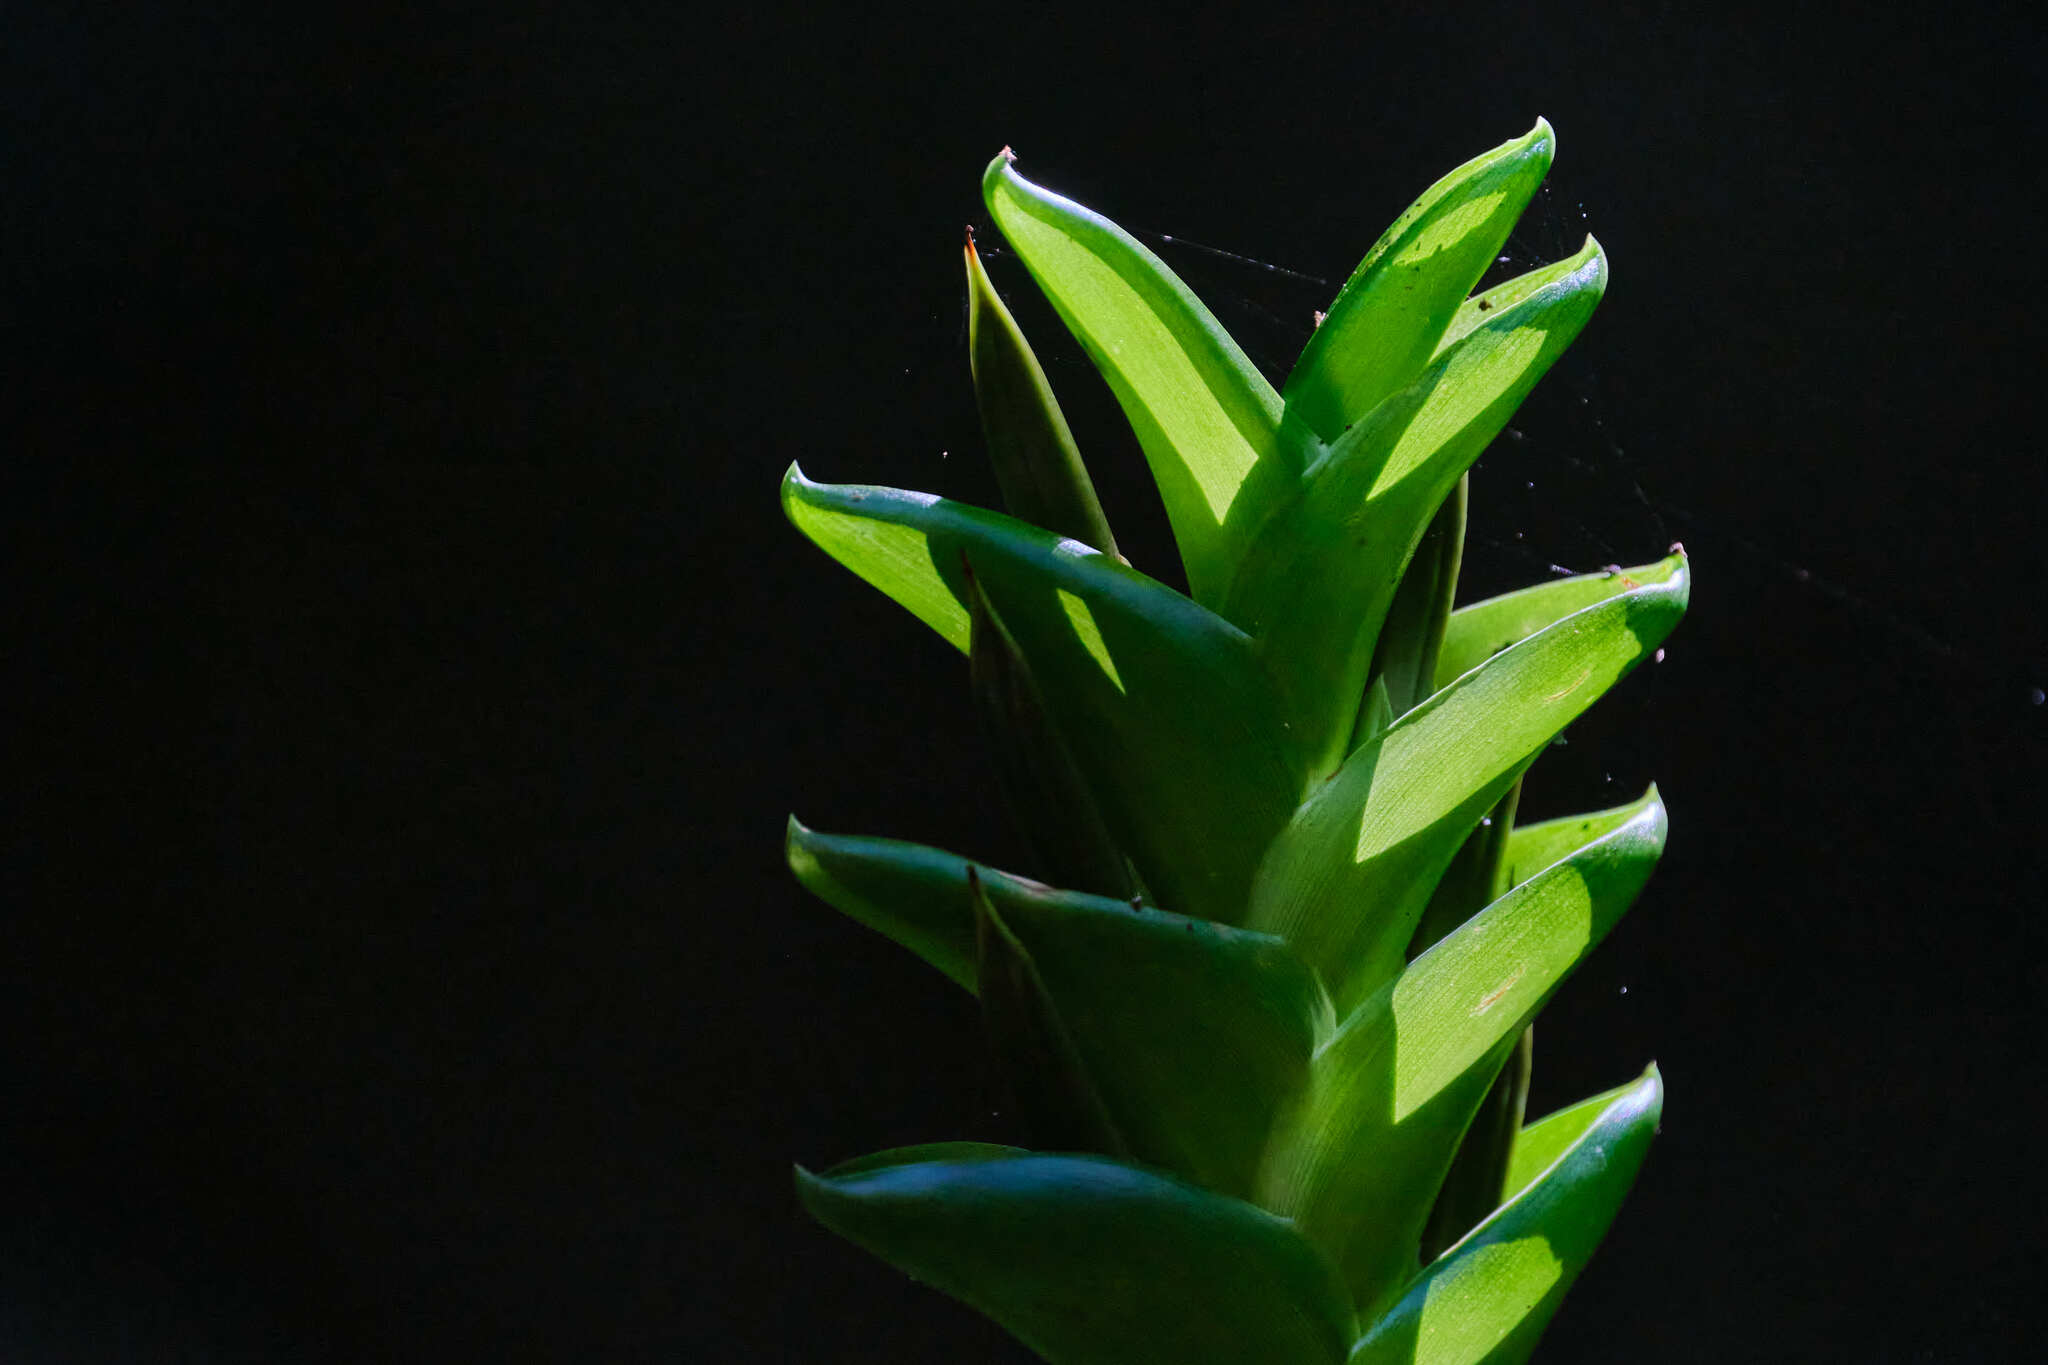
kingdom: Plantae
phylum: Tracheophyta
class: Liliopsida
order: Poales
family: Bromeliaceae
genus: Tillandsia
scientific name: Tillandsia heliconioides
